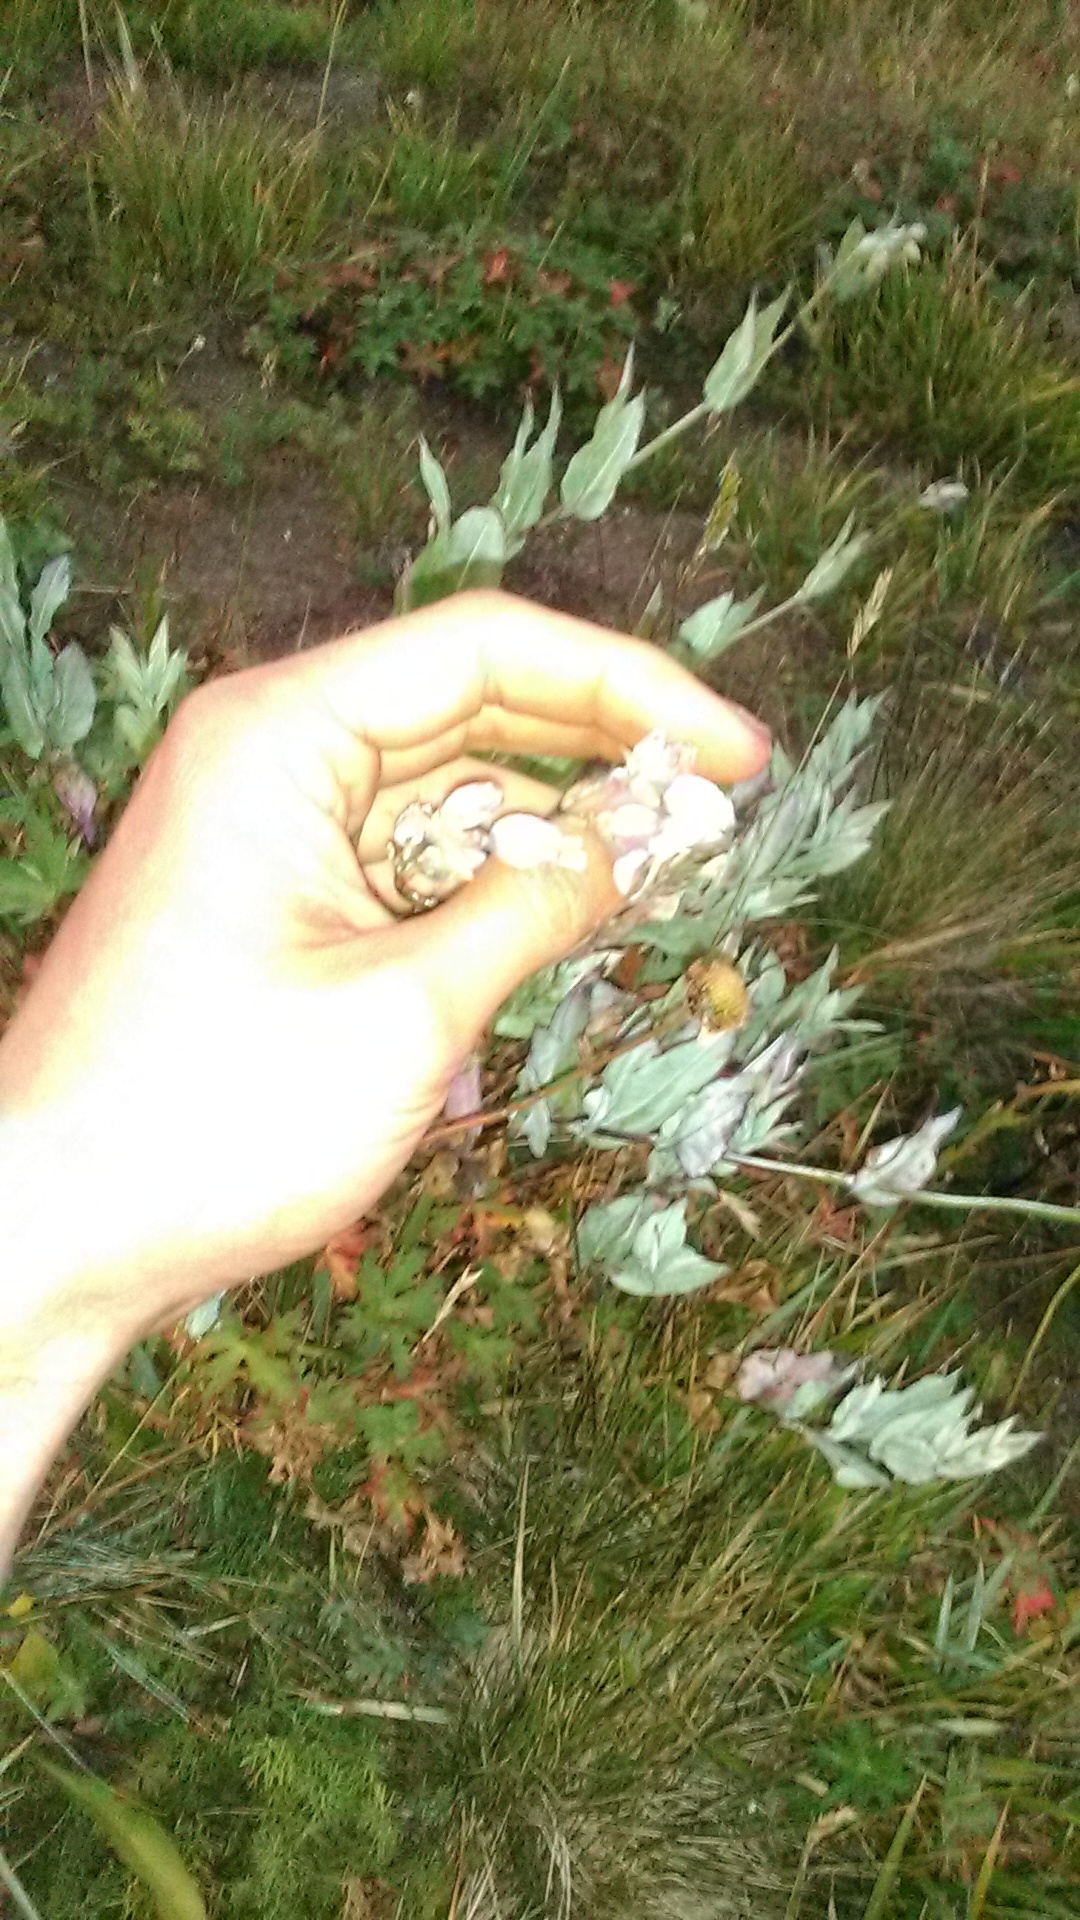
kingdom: Plantae
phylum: Tracheophyta
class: Magnoliopsida
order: Caryophyllales
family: Caryophyllaceae
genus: Silene
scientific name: Silene vulgaris
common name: Bladder campion
